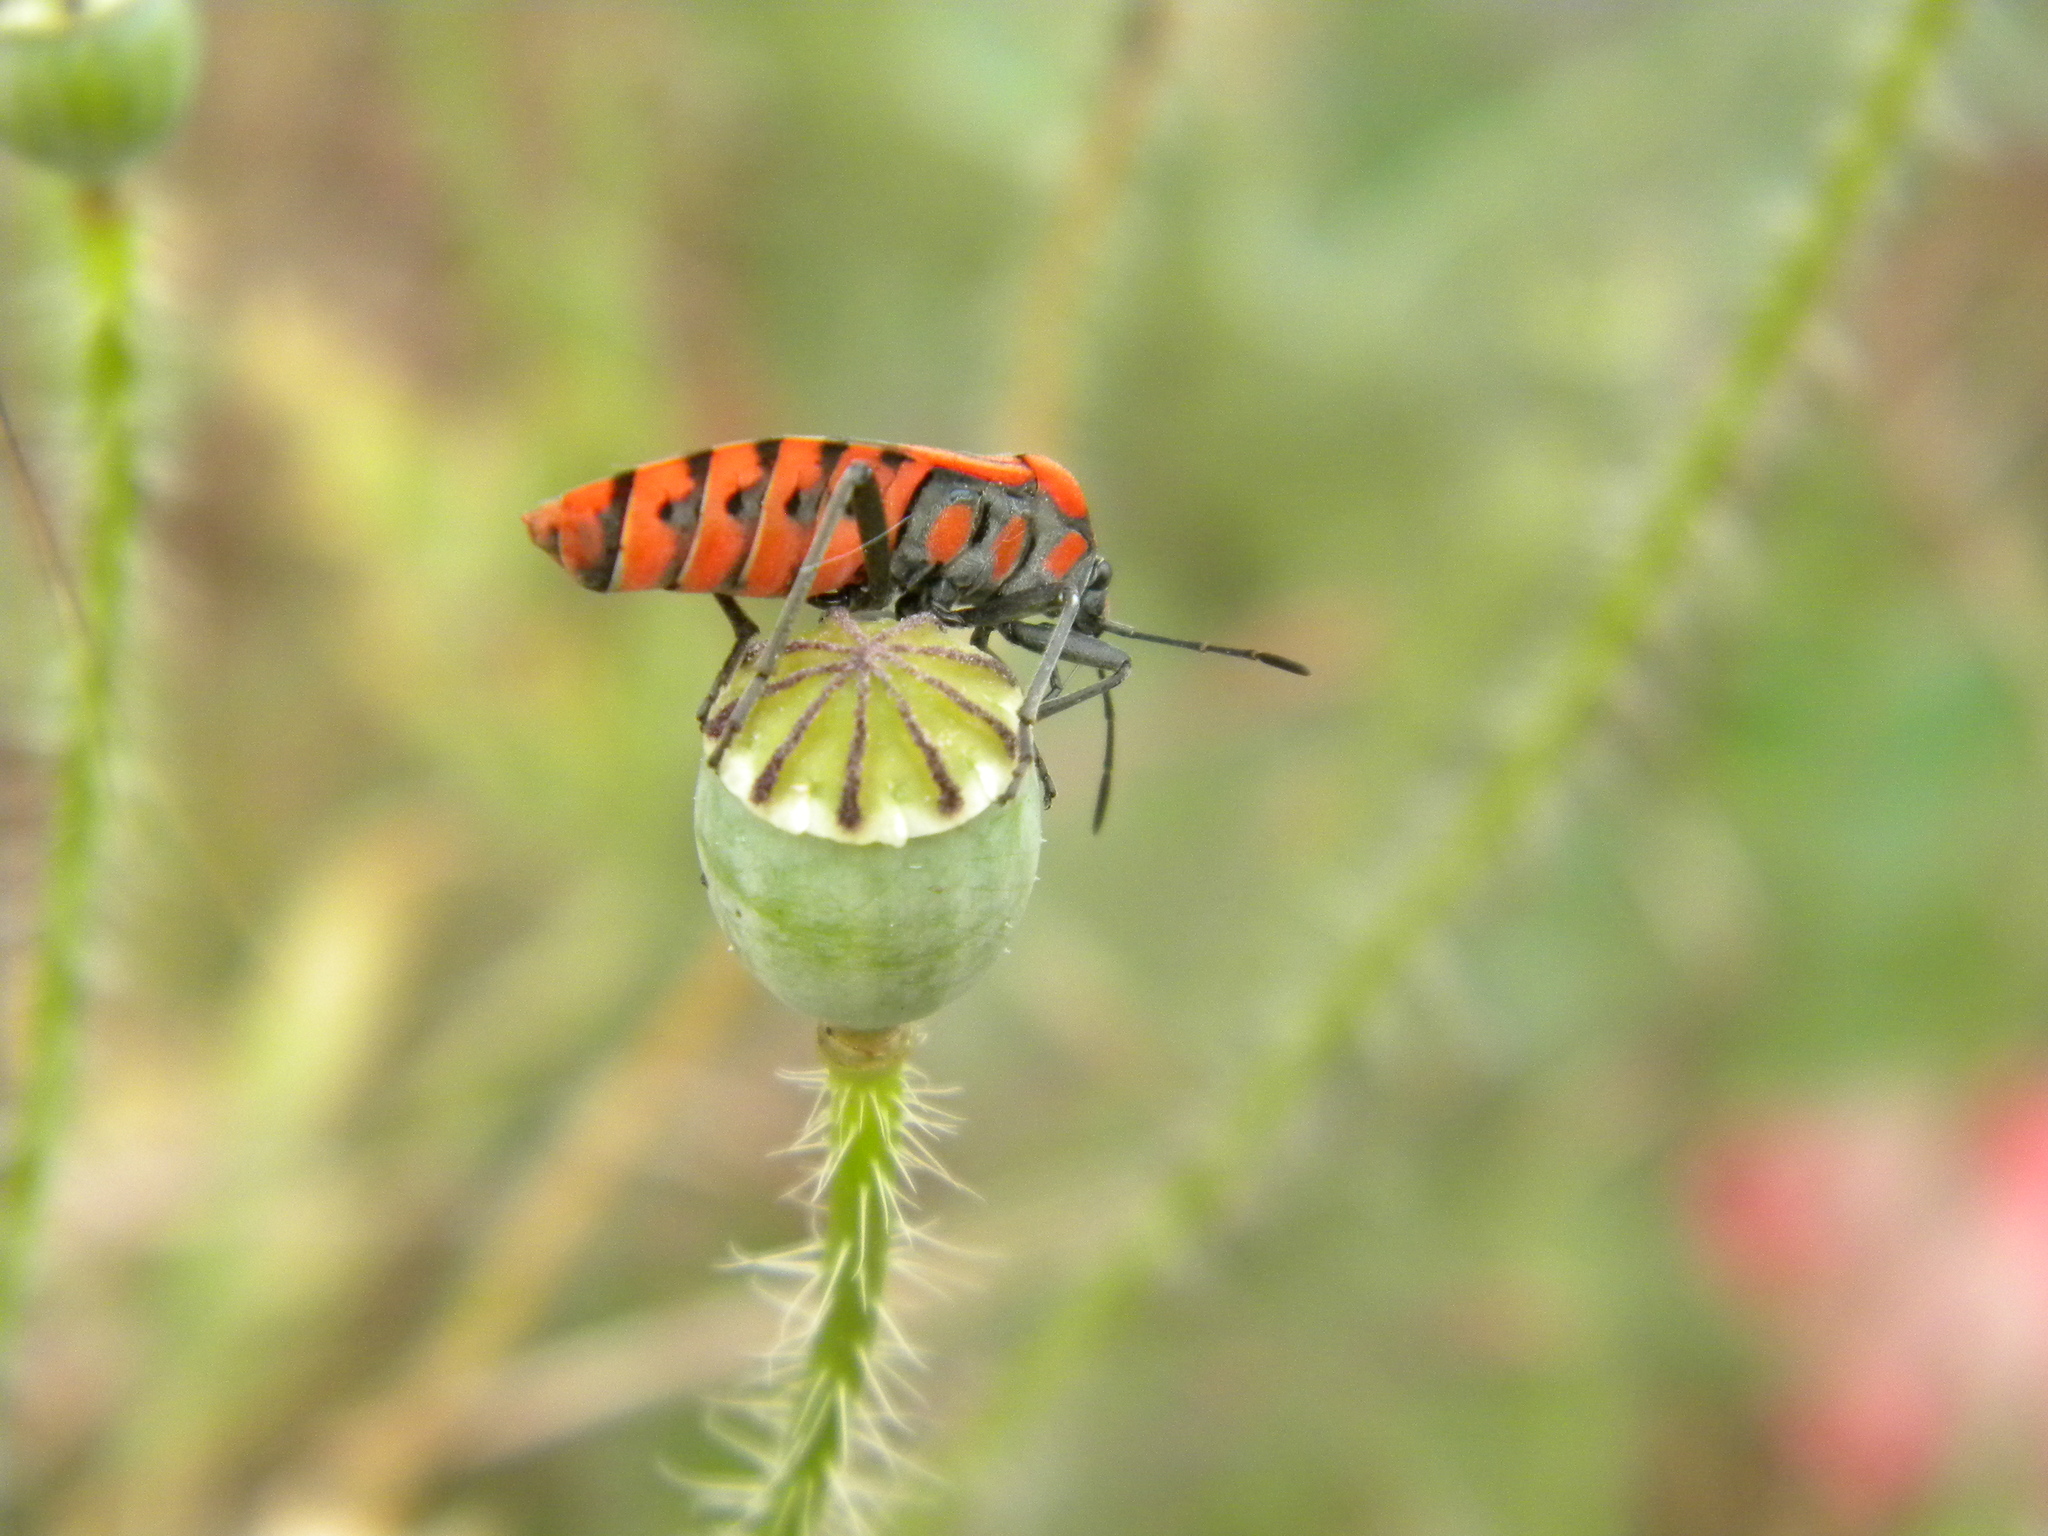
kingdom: Animalia
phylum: Arthropoda
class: Insecta
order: Hemiptera
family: Lygaeidae
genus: Spilostethus
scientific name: Spilostethus pandurus
